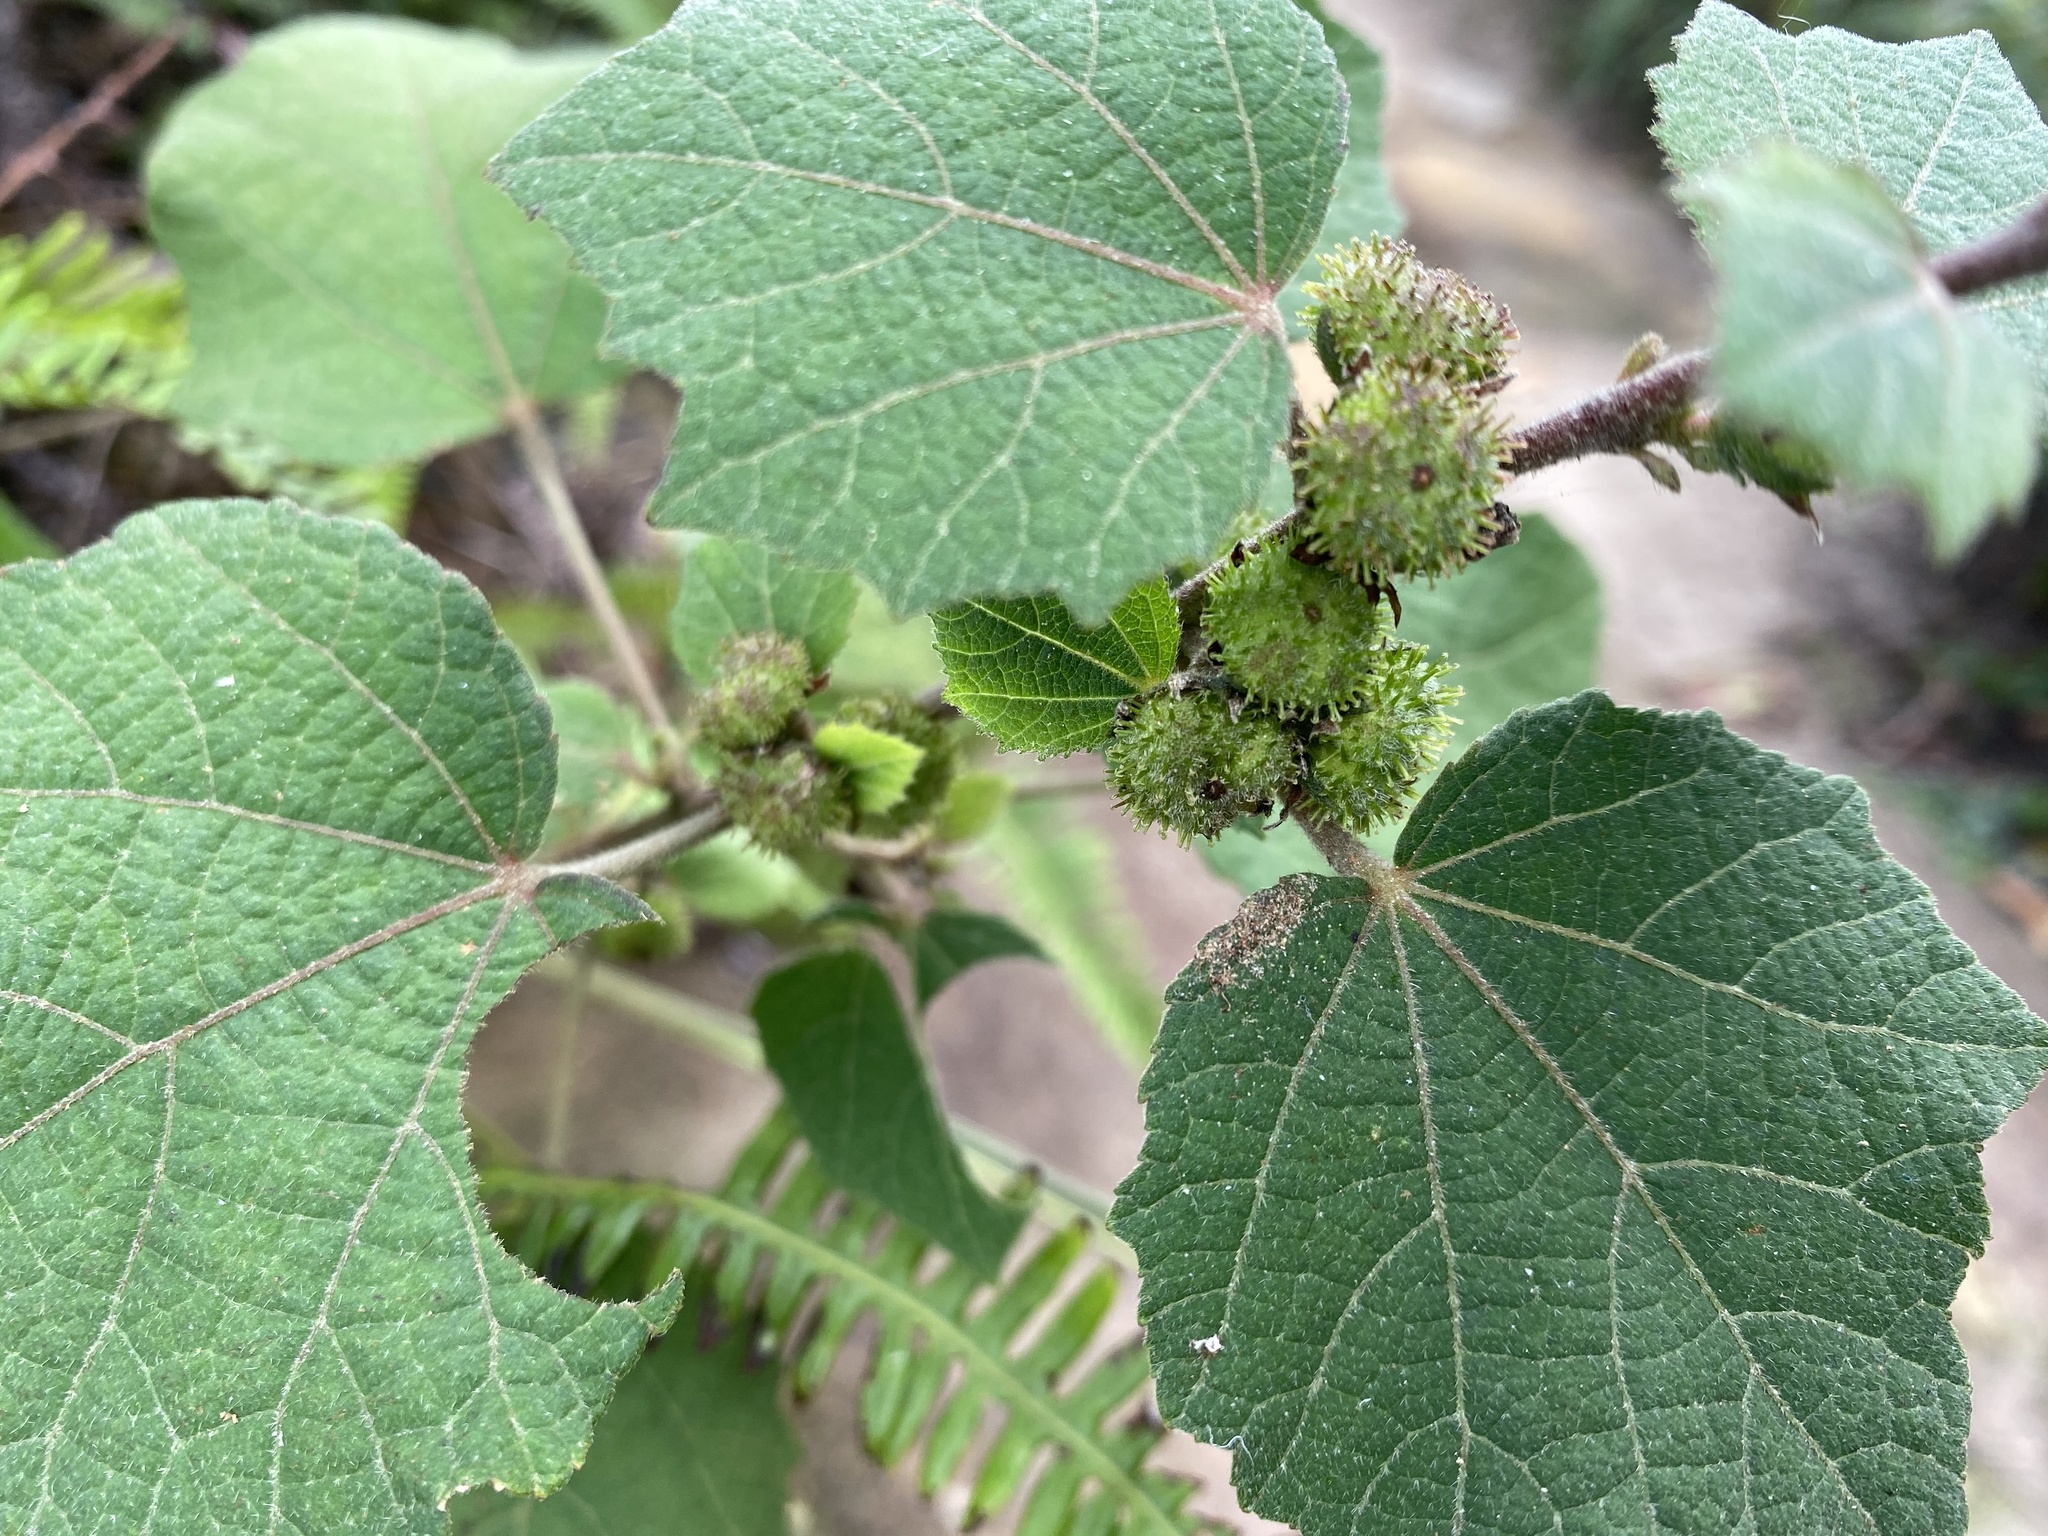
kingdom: Plantae
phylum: Tracheophyta
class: Magnoliopsida
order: Malvales
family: Malvaceae
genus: Urena
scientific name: Urena lobata
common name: Caesarweed
